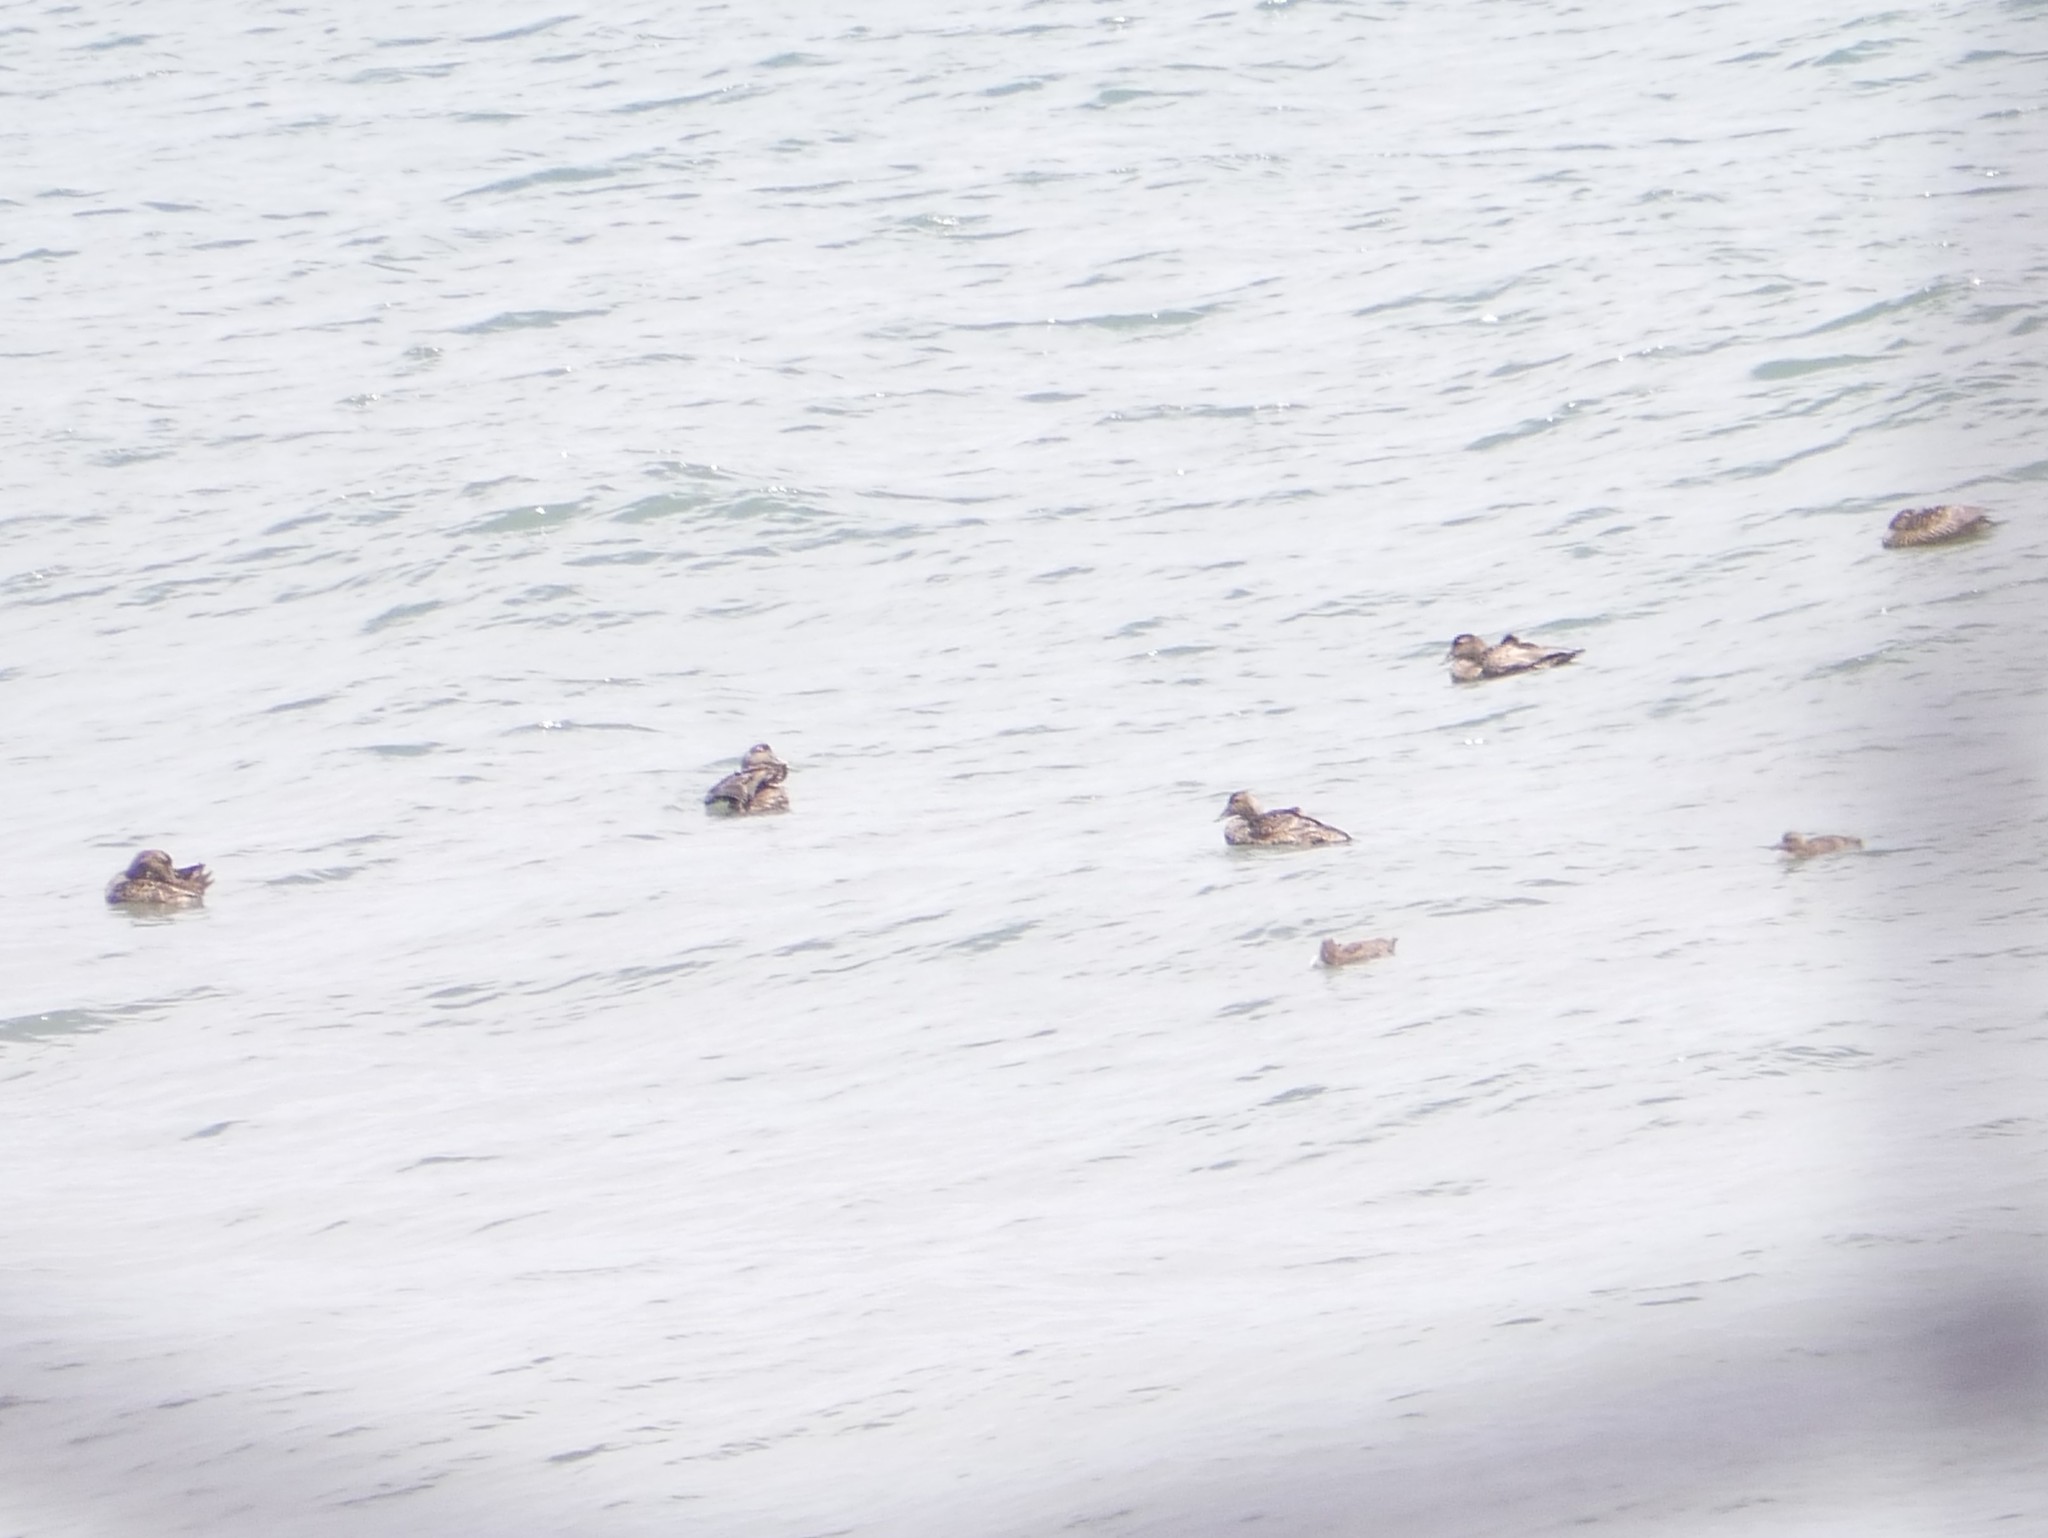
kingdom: Animalia
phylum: Chordata
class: Aves
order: Anseriformes
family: Anatidae
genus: Somateria
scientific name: Somateria mollissima
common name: Common eider
